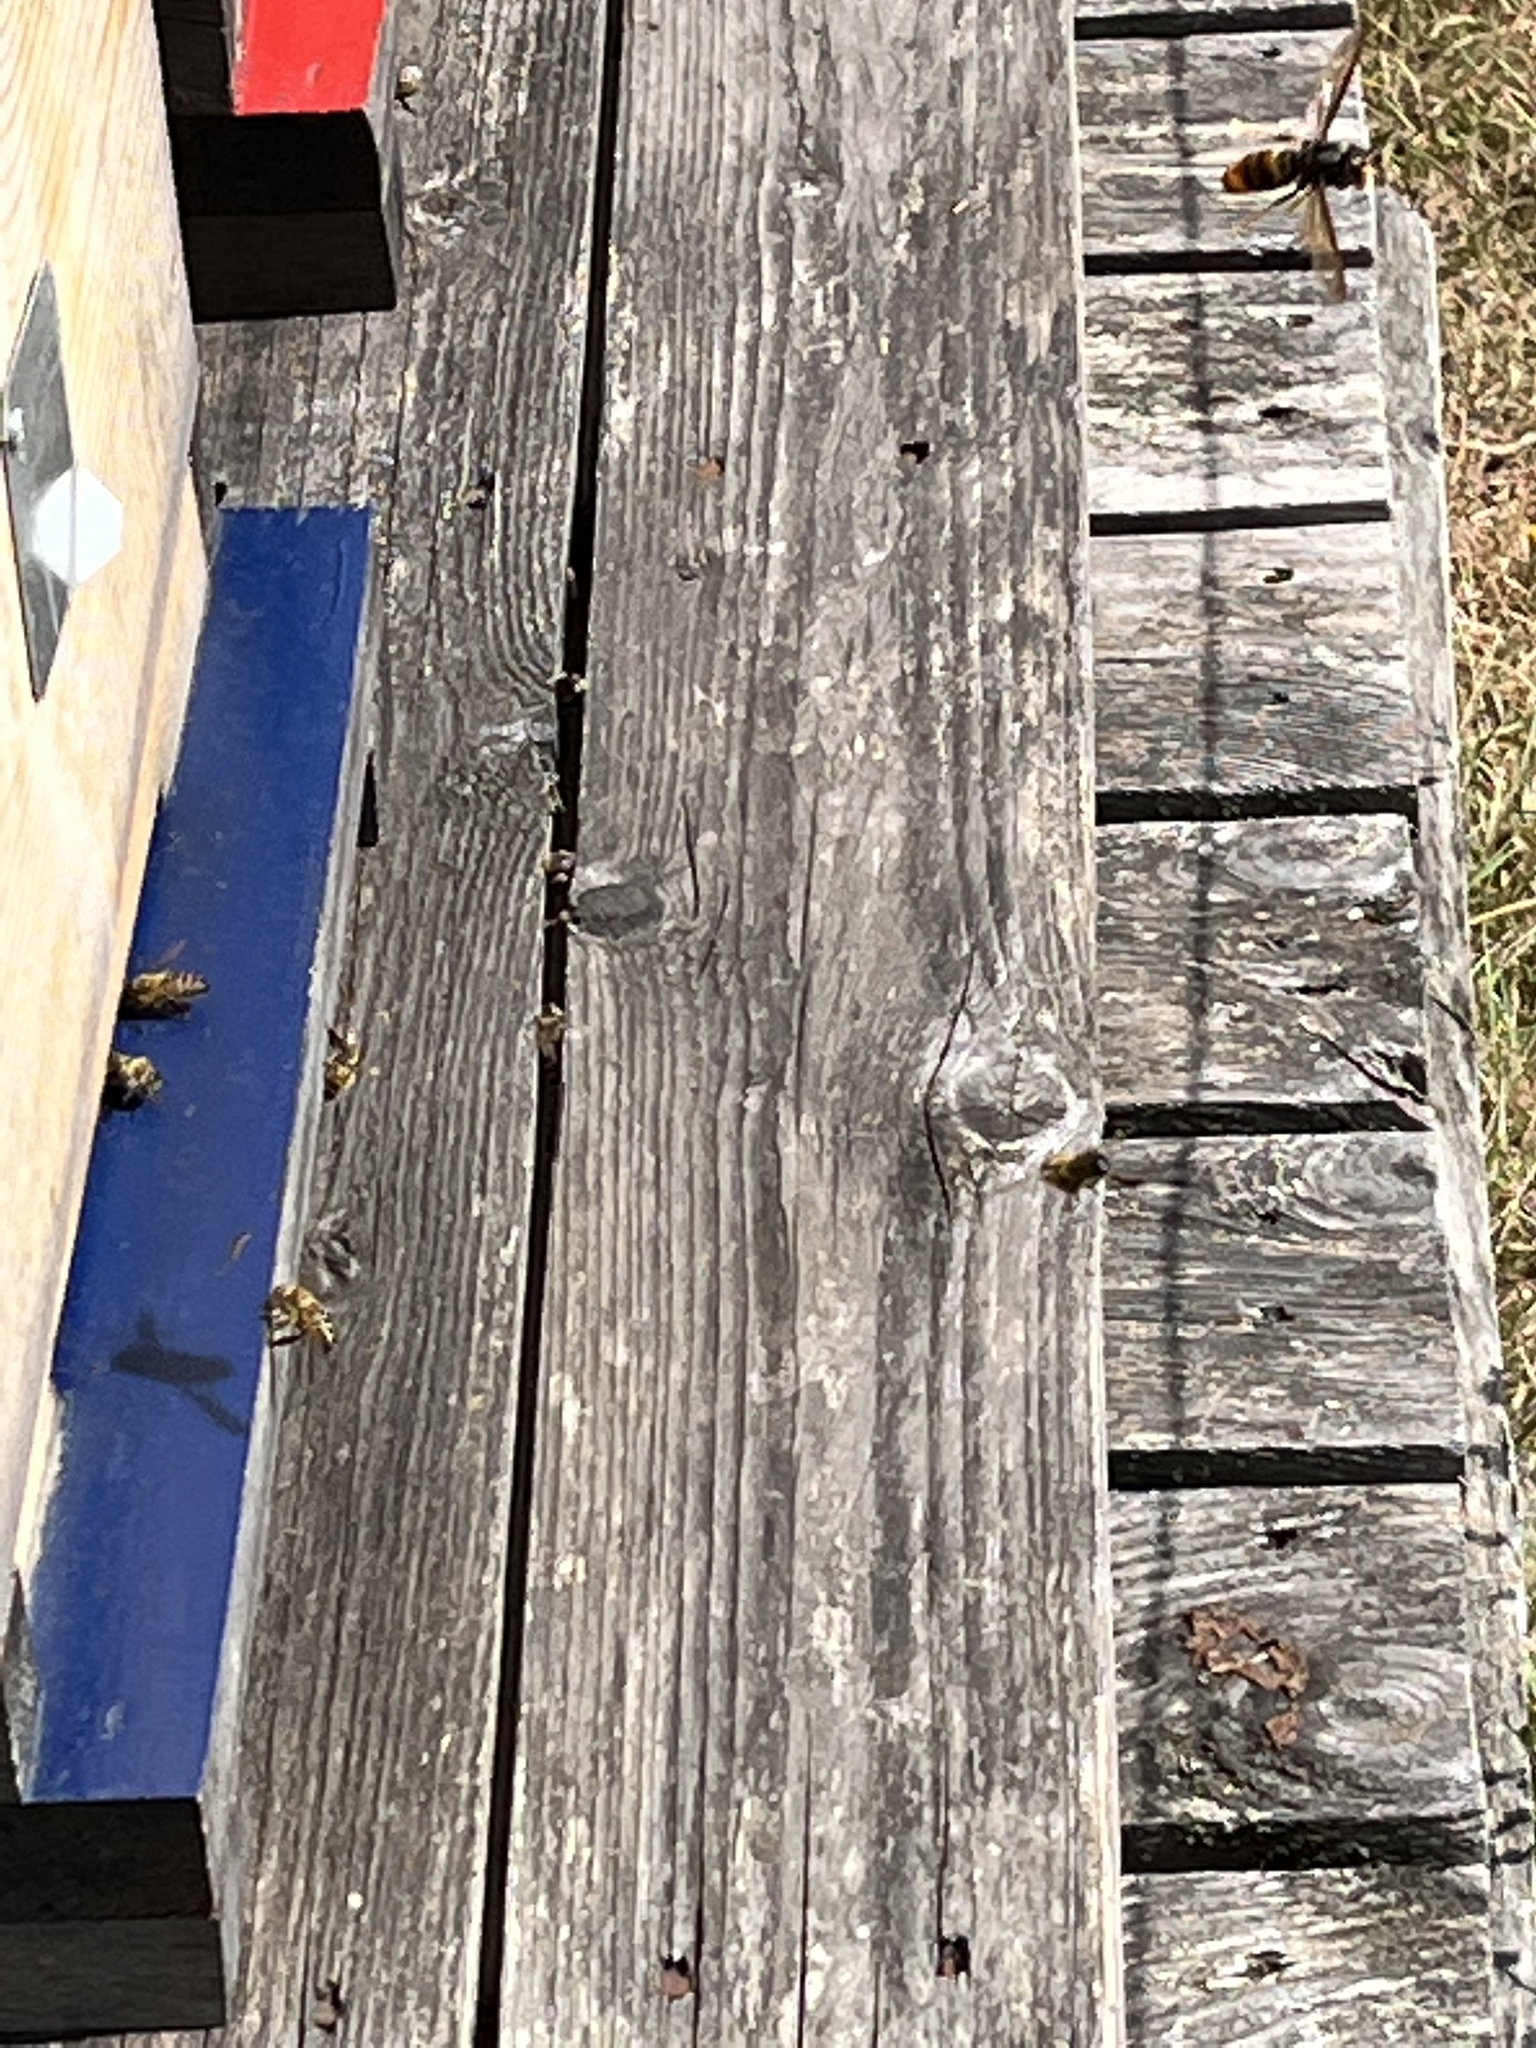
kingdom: Animalia
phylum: Arthropoda
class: Insecta
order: Hymenoptera
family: Vespidae
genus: Vespa
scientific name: Vespa velutina
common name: Asian hornet
